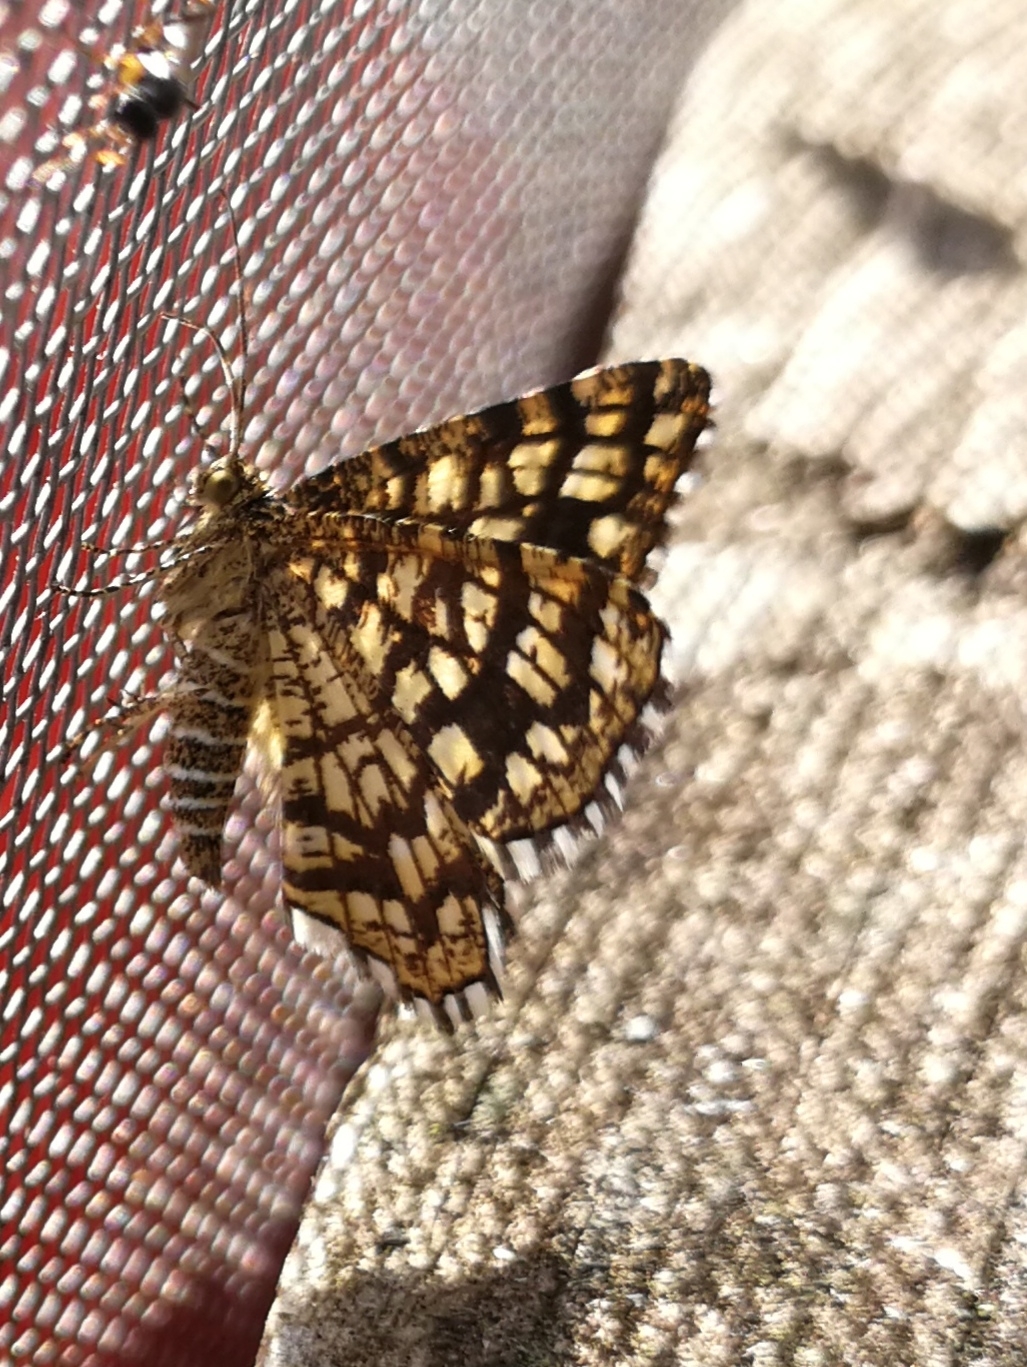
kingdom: Animalia
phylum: Arthropoda
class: Insecta
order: Lepidoptera
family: Geometridae
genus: Chiasmia
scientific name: Chiasmia clathrata
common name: Latticed heath
